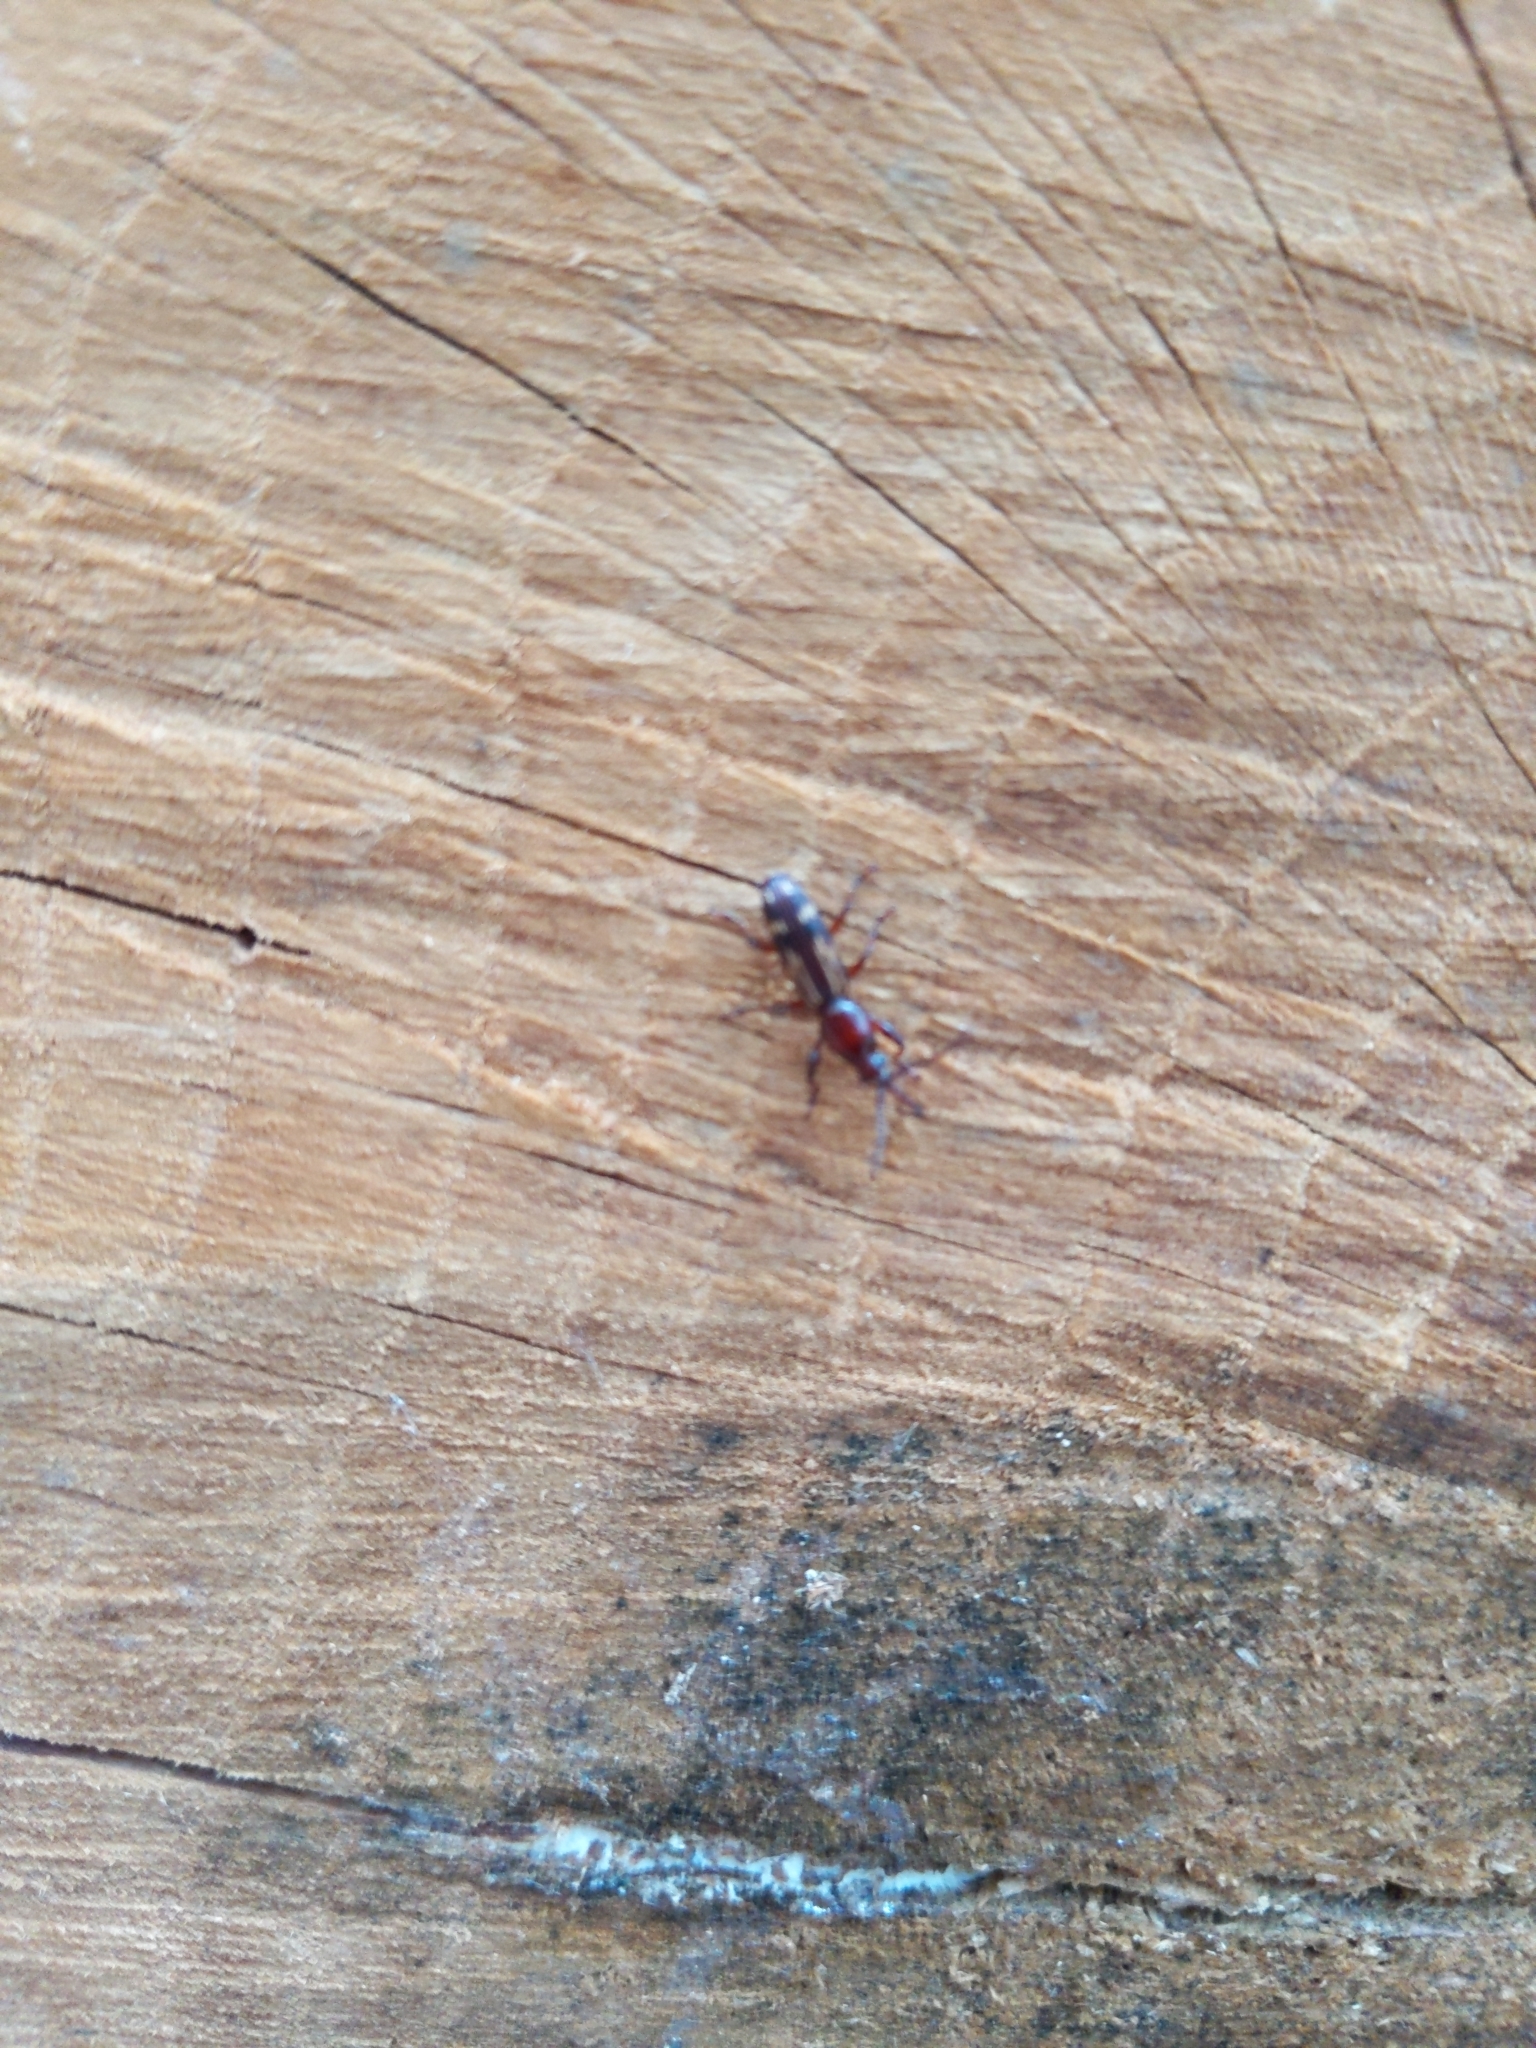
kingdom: Animalia
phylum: Arthropoda
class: Insecta
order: Coleoptera
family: Brentidae
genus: Arrenodes
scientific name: Arrenodes minutus
